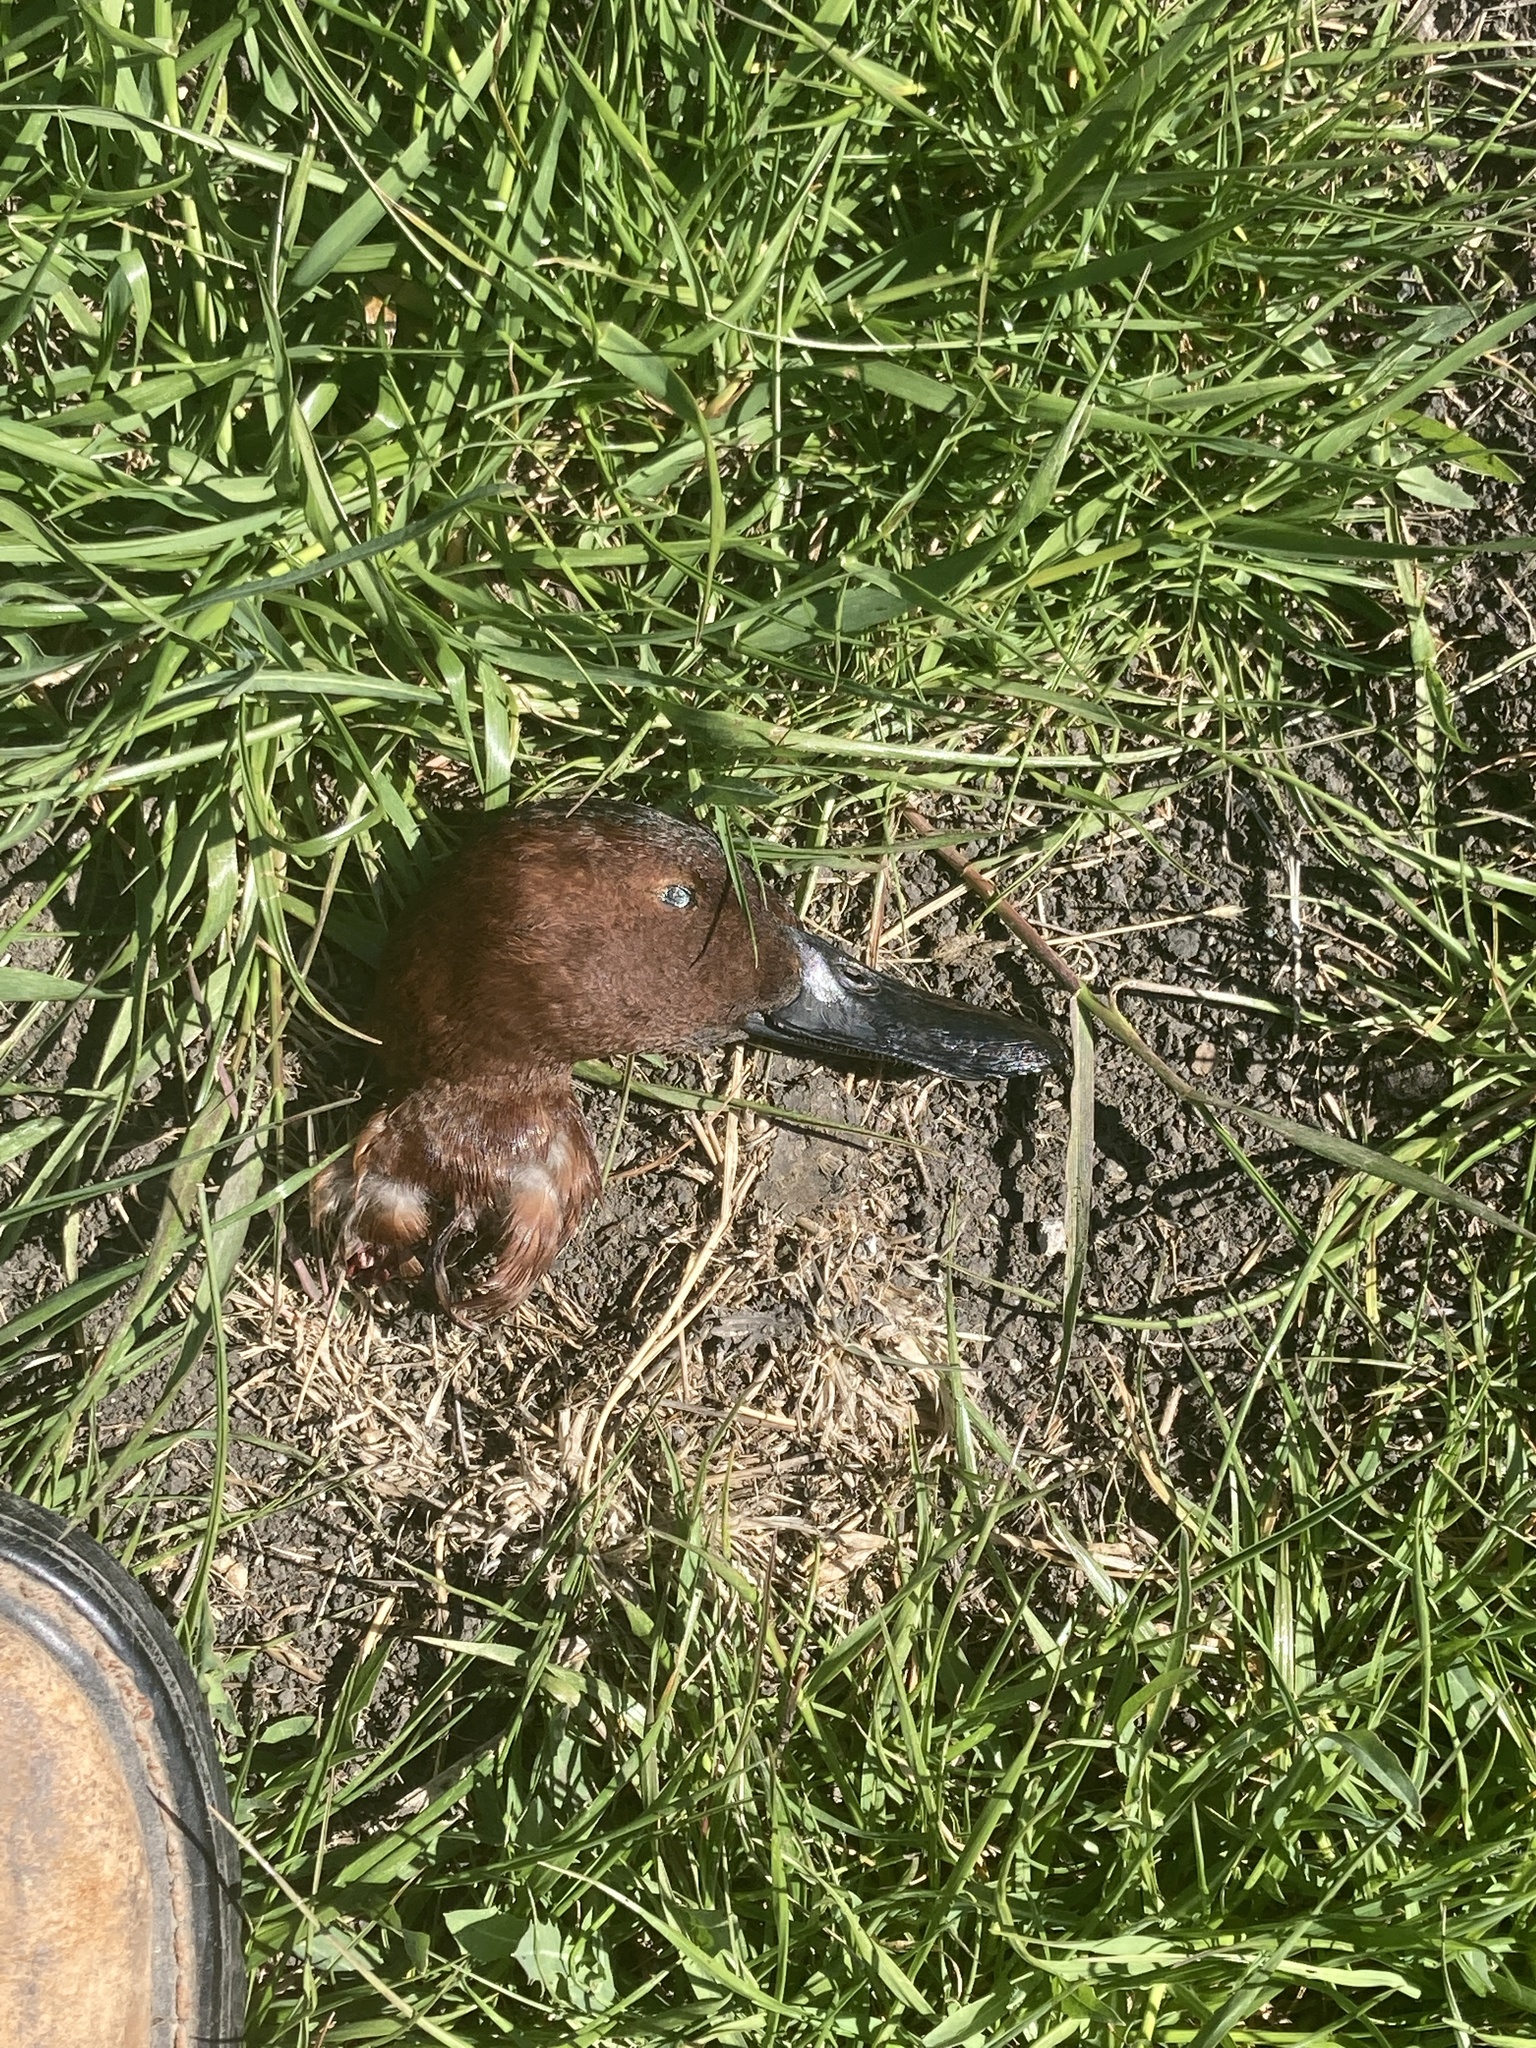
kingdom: Animalia
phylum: Chordata
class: Aves
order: Anseriformes
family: Anatidae
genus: Spatula
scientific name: Spatula cyanoptera
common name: Cinnamon teal
